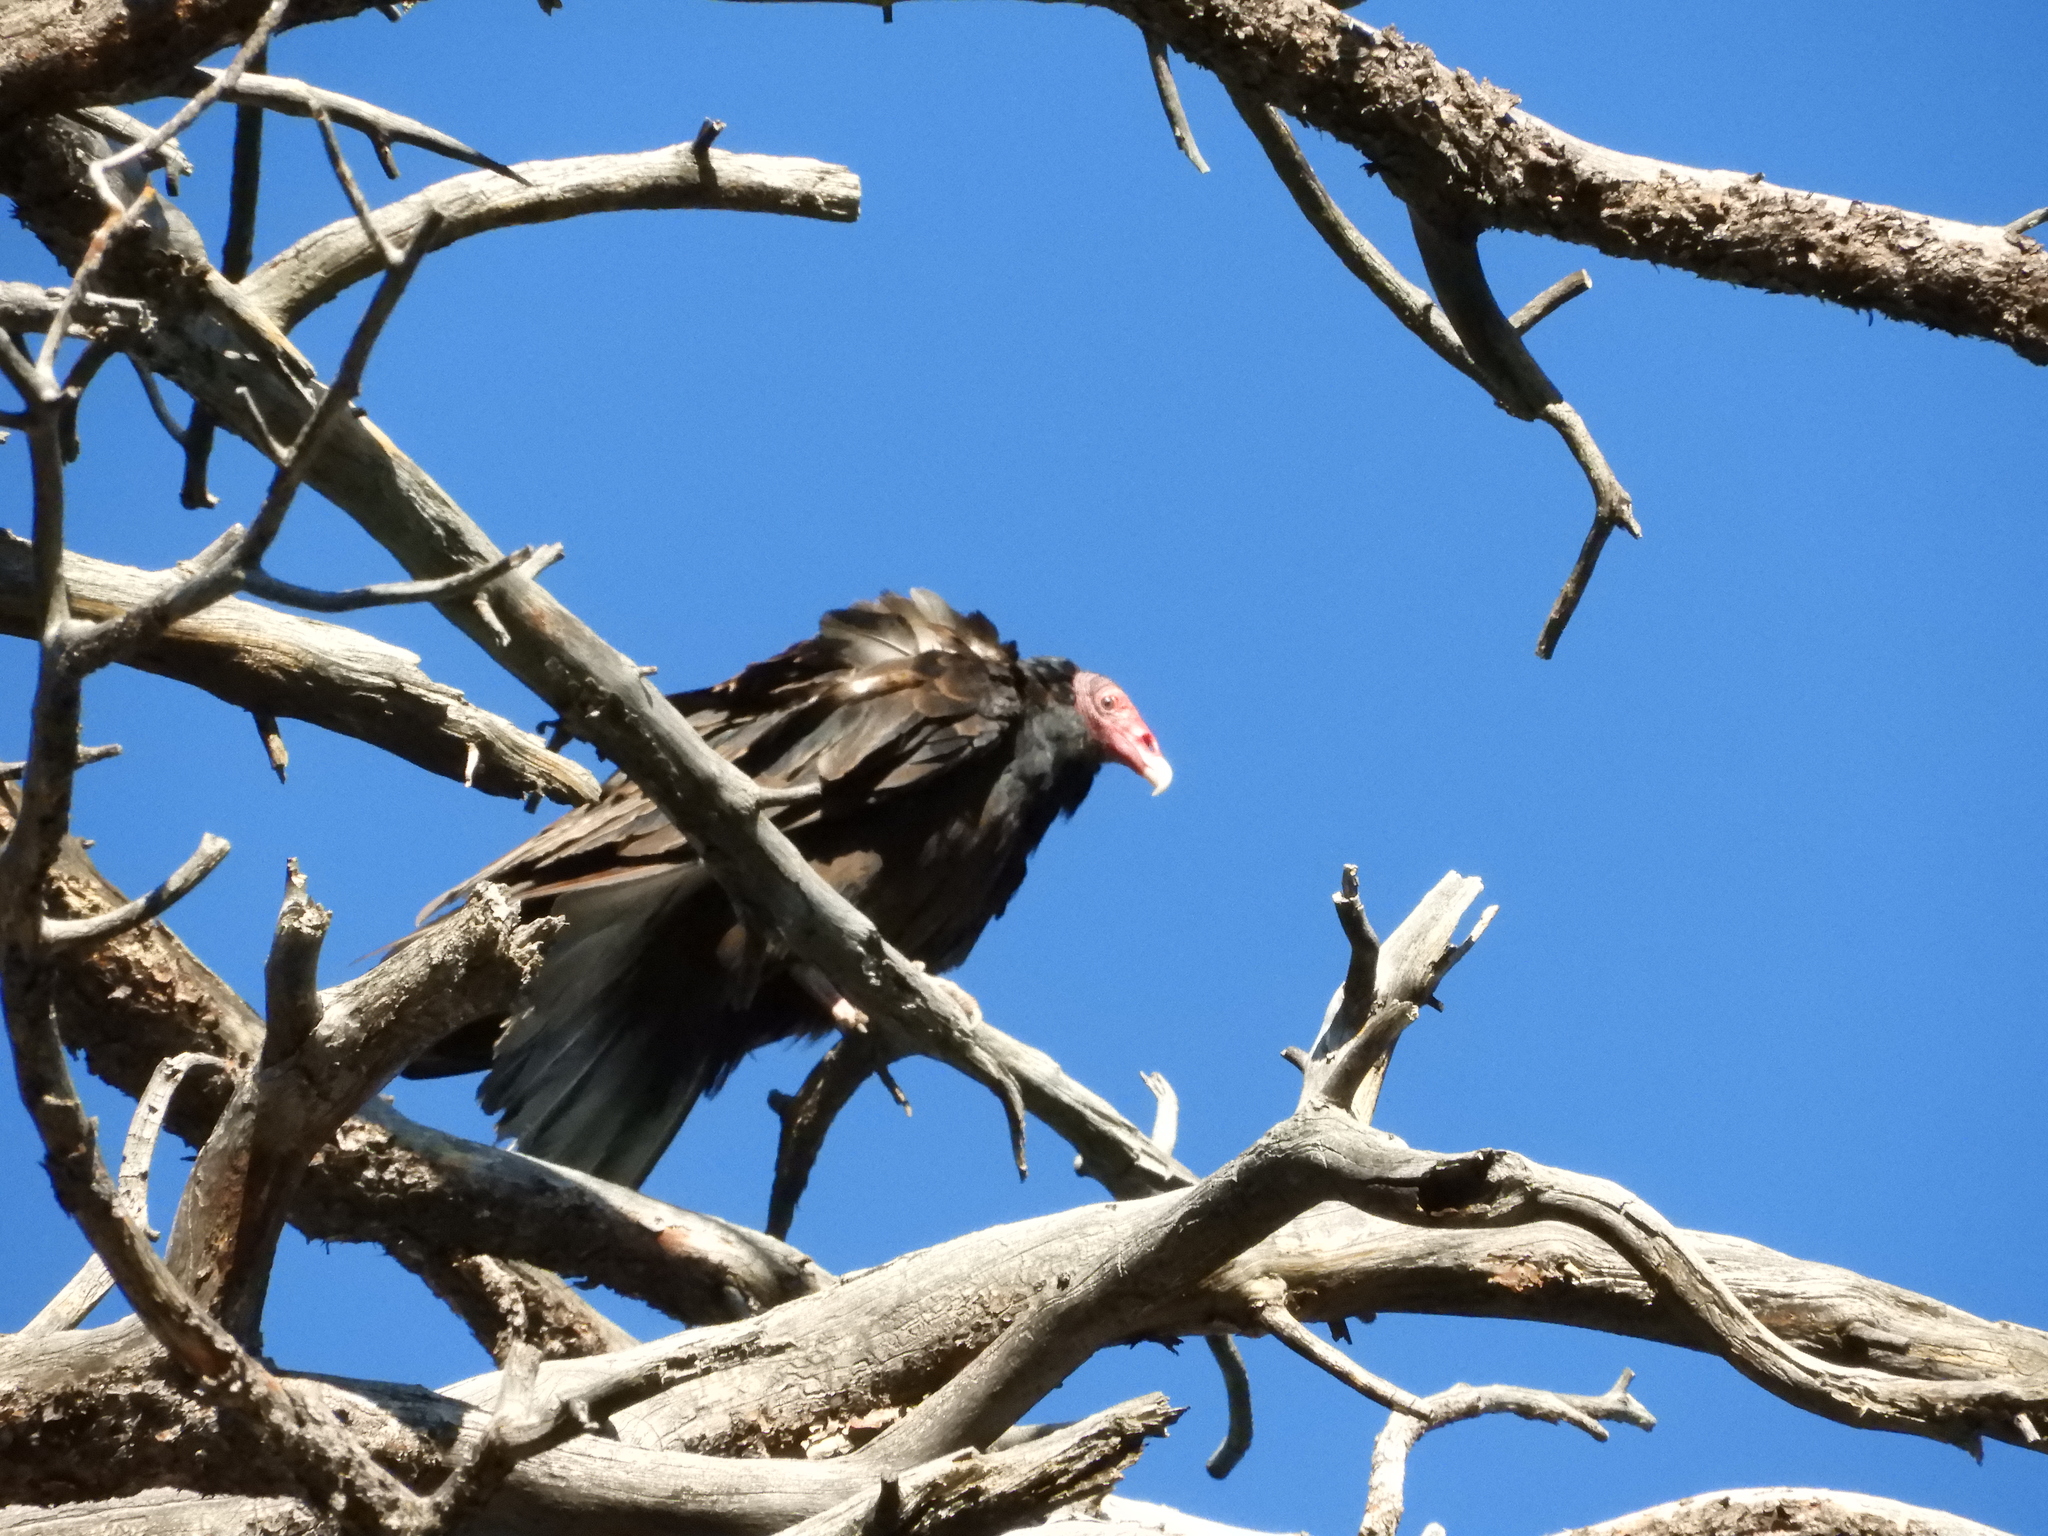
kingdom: Animalia
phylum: Chordata
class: Aves
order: Accipitriformes
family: Cathartidae
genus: Cathartes
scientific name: Cathartes aura
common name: Turkey vulture
